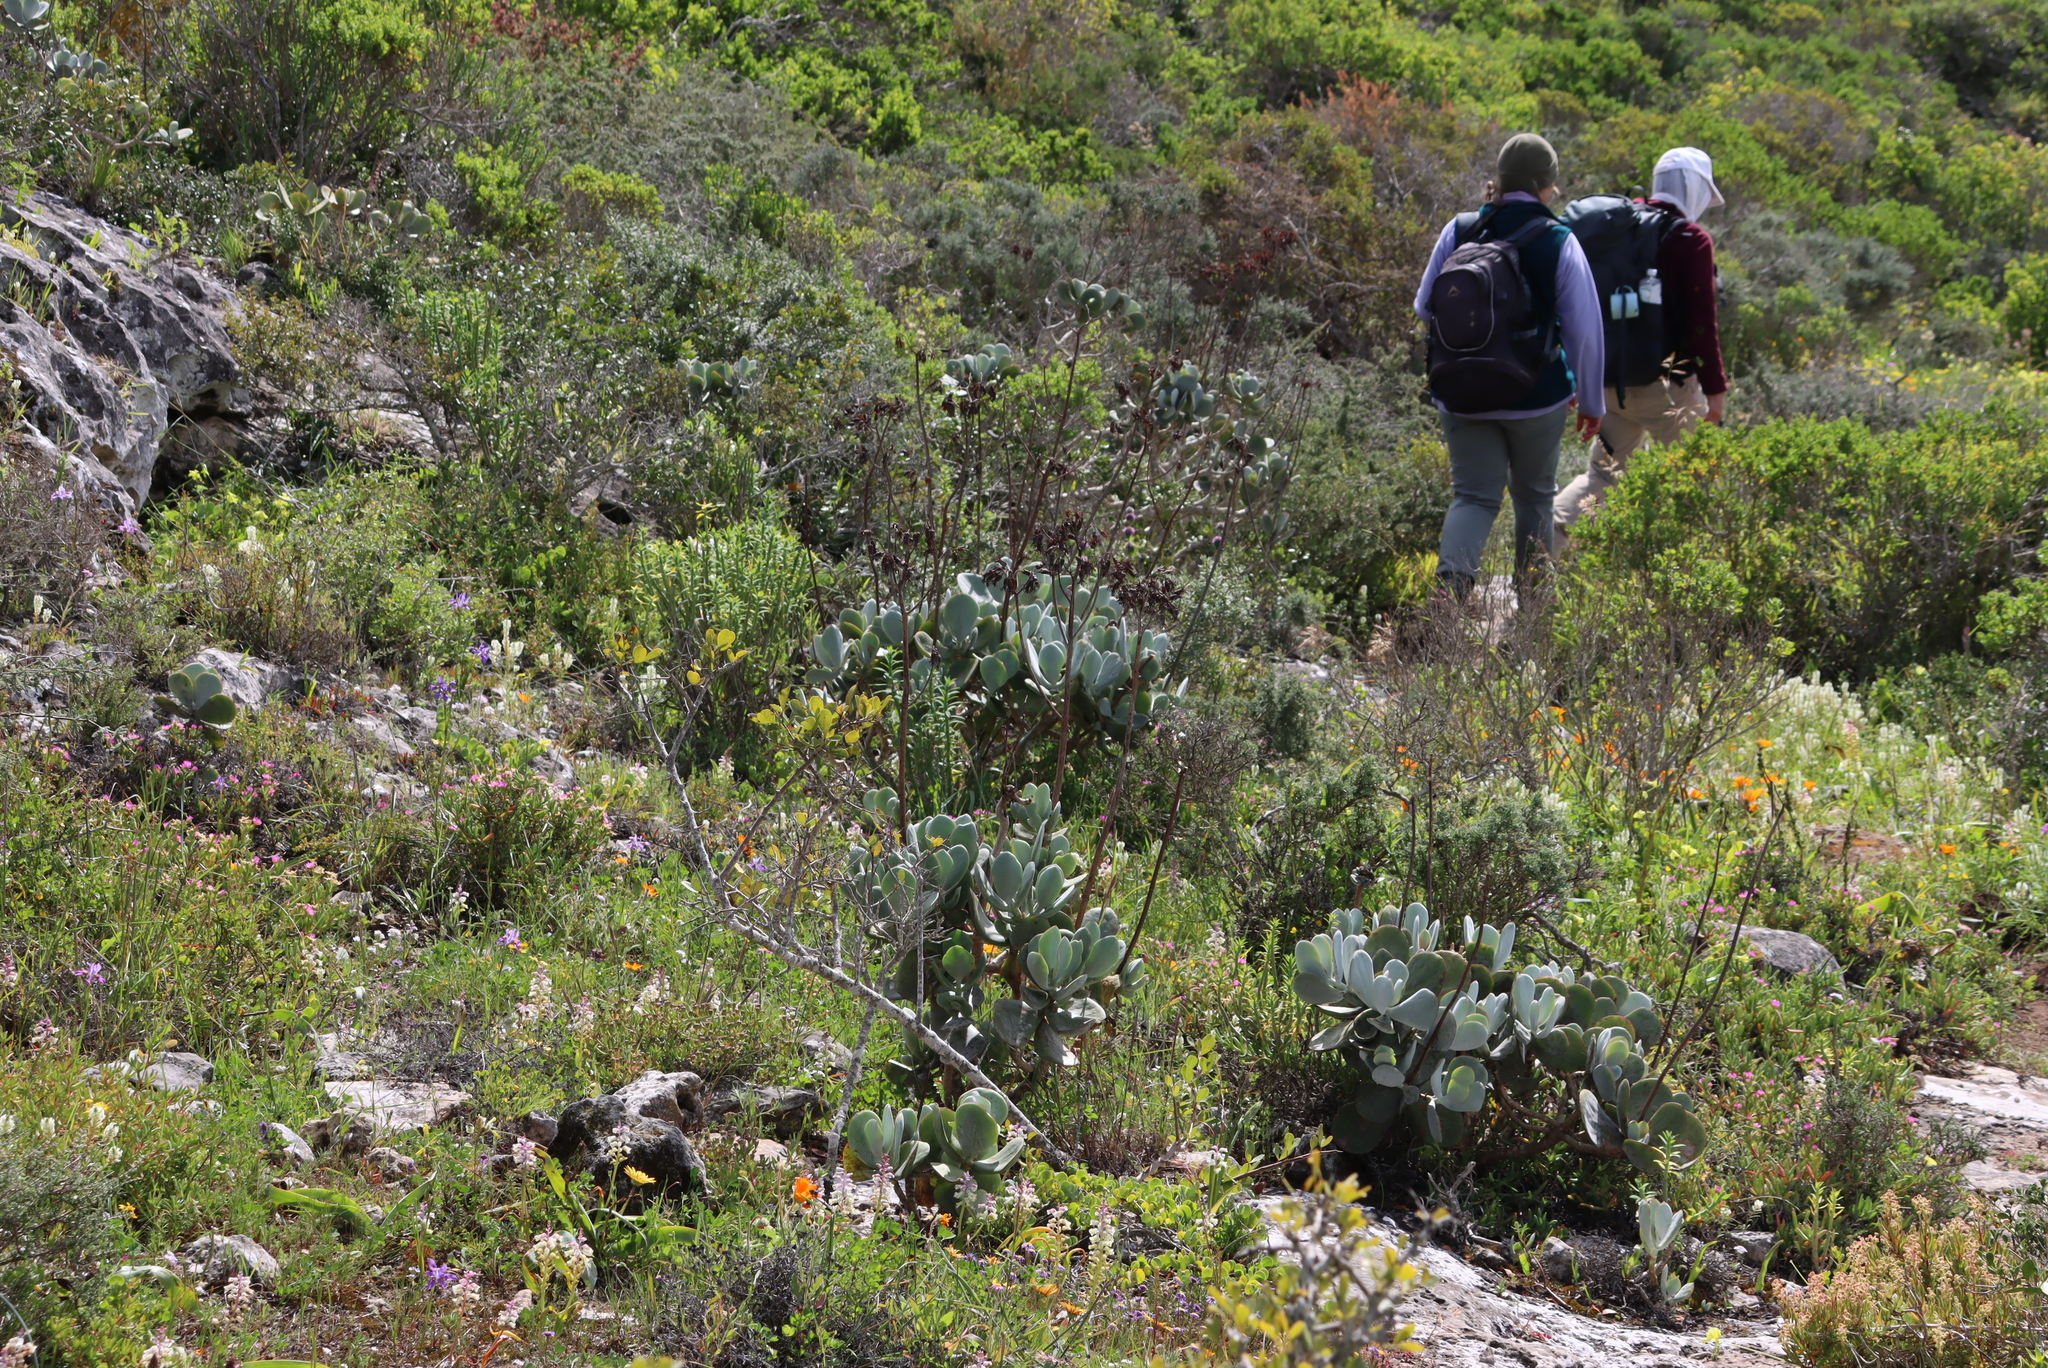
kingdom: Plantae
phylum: Tracheophyta
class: Magnoliopsida
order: Saxifragales
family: Crassulaceae
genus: Cotyledon
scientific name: Cotyledon orbiculata
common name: Pig's ear
